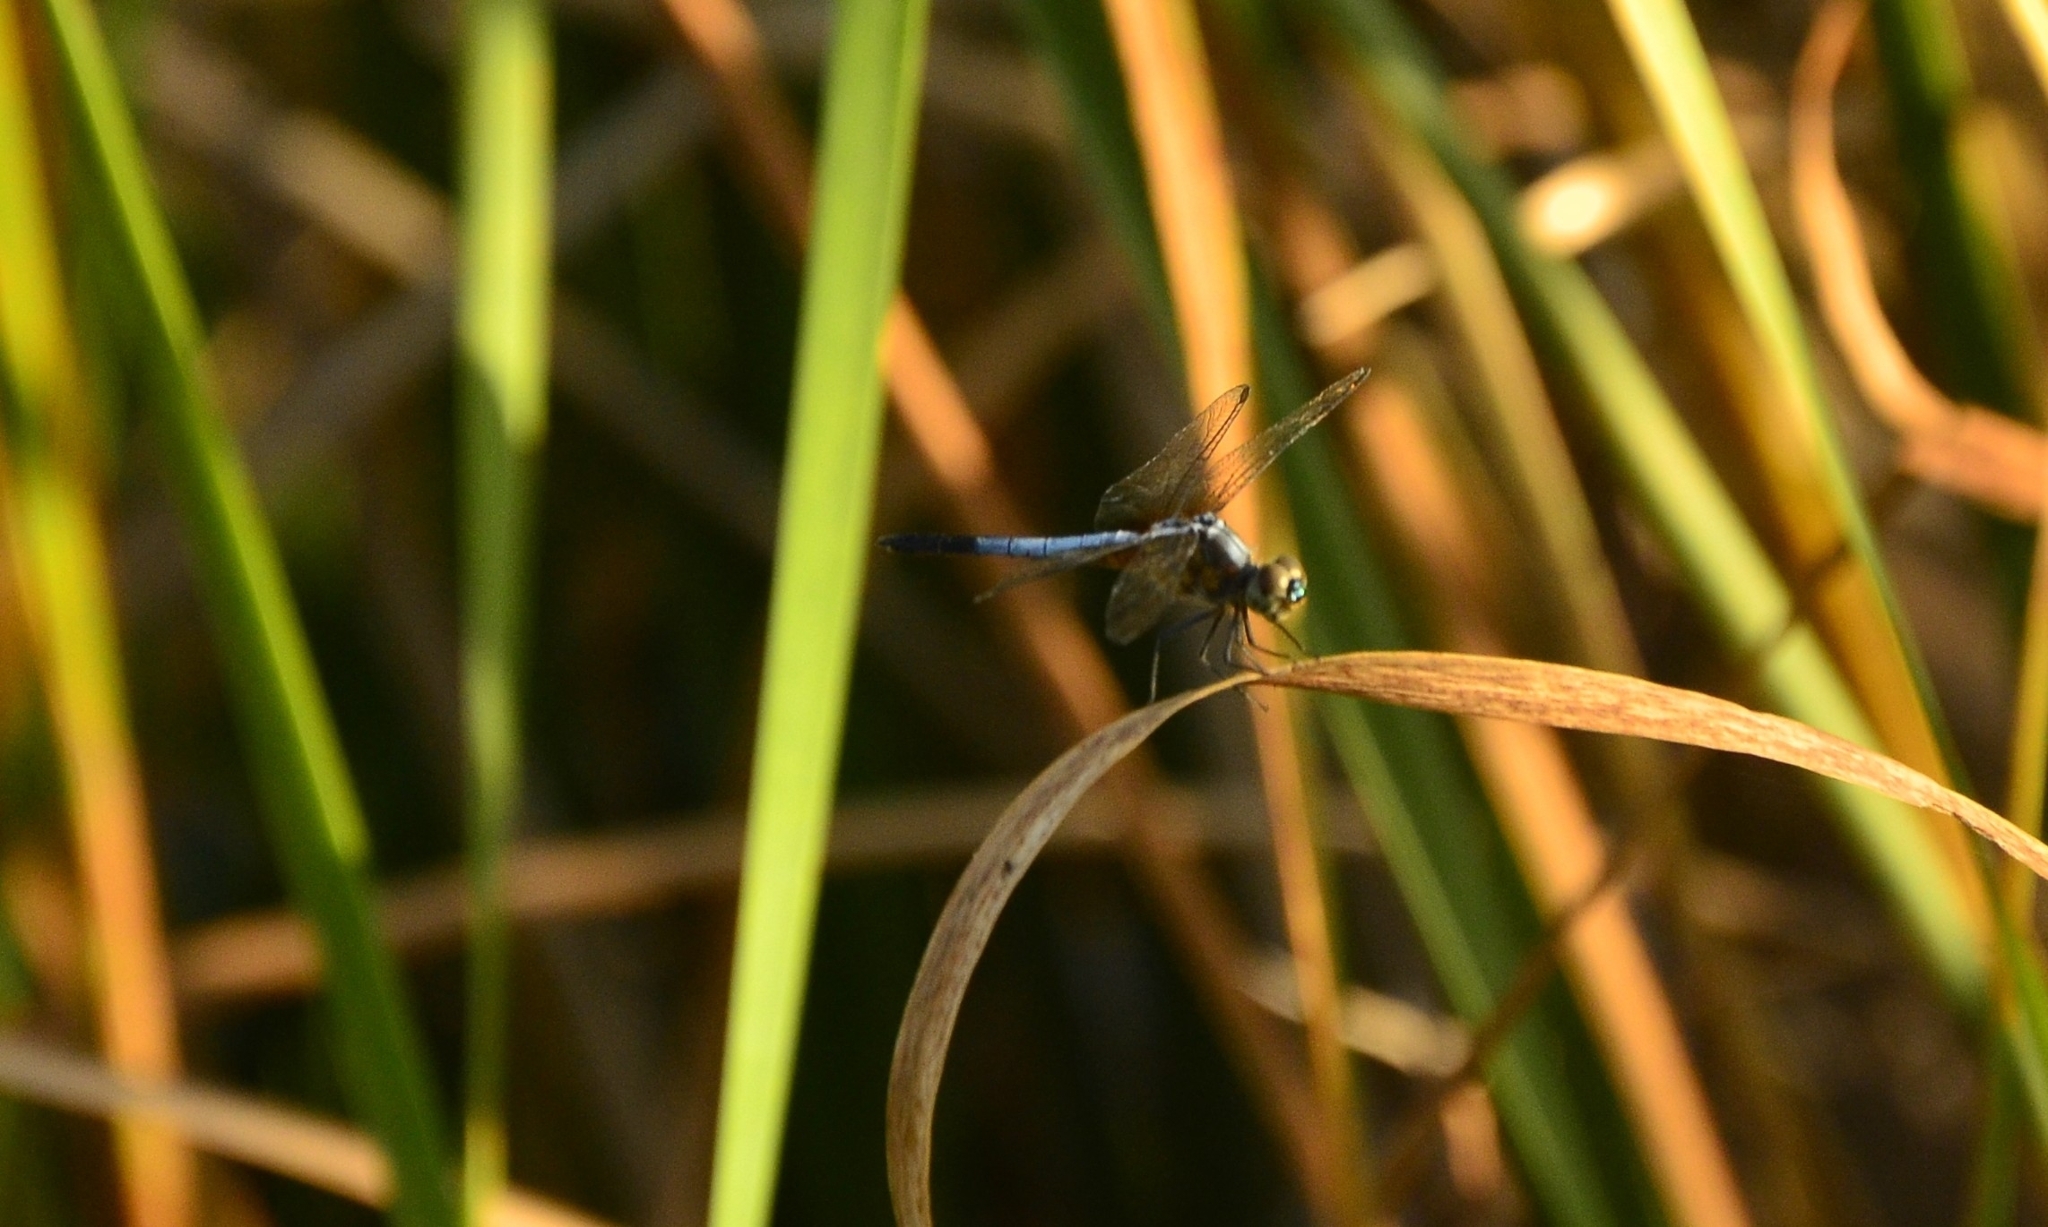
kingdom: Animalia
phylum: Arthropoda
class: Insecta
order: Odonata
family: Libellulidae
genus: Brachydiplax
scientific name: Brachydiplax chalybea
